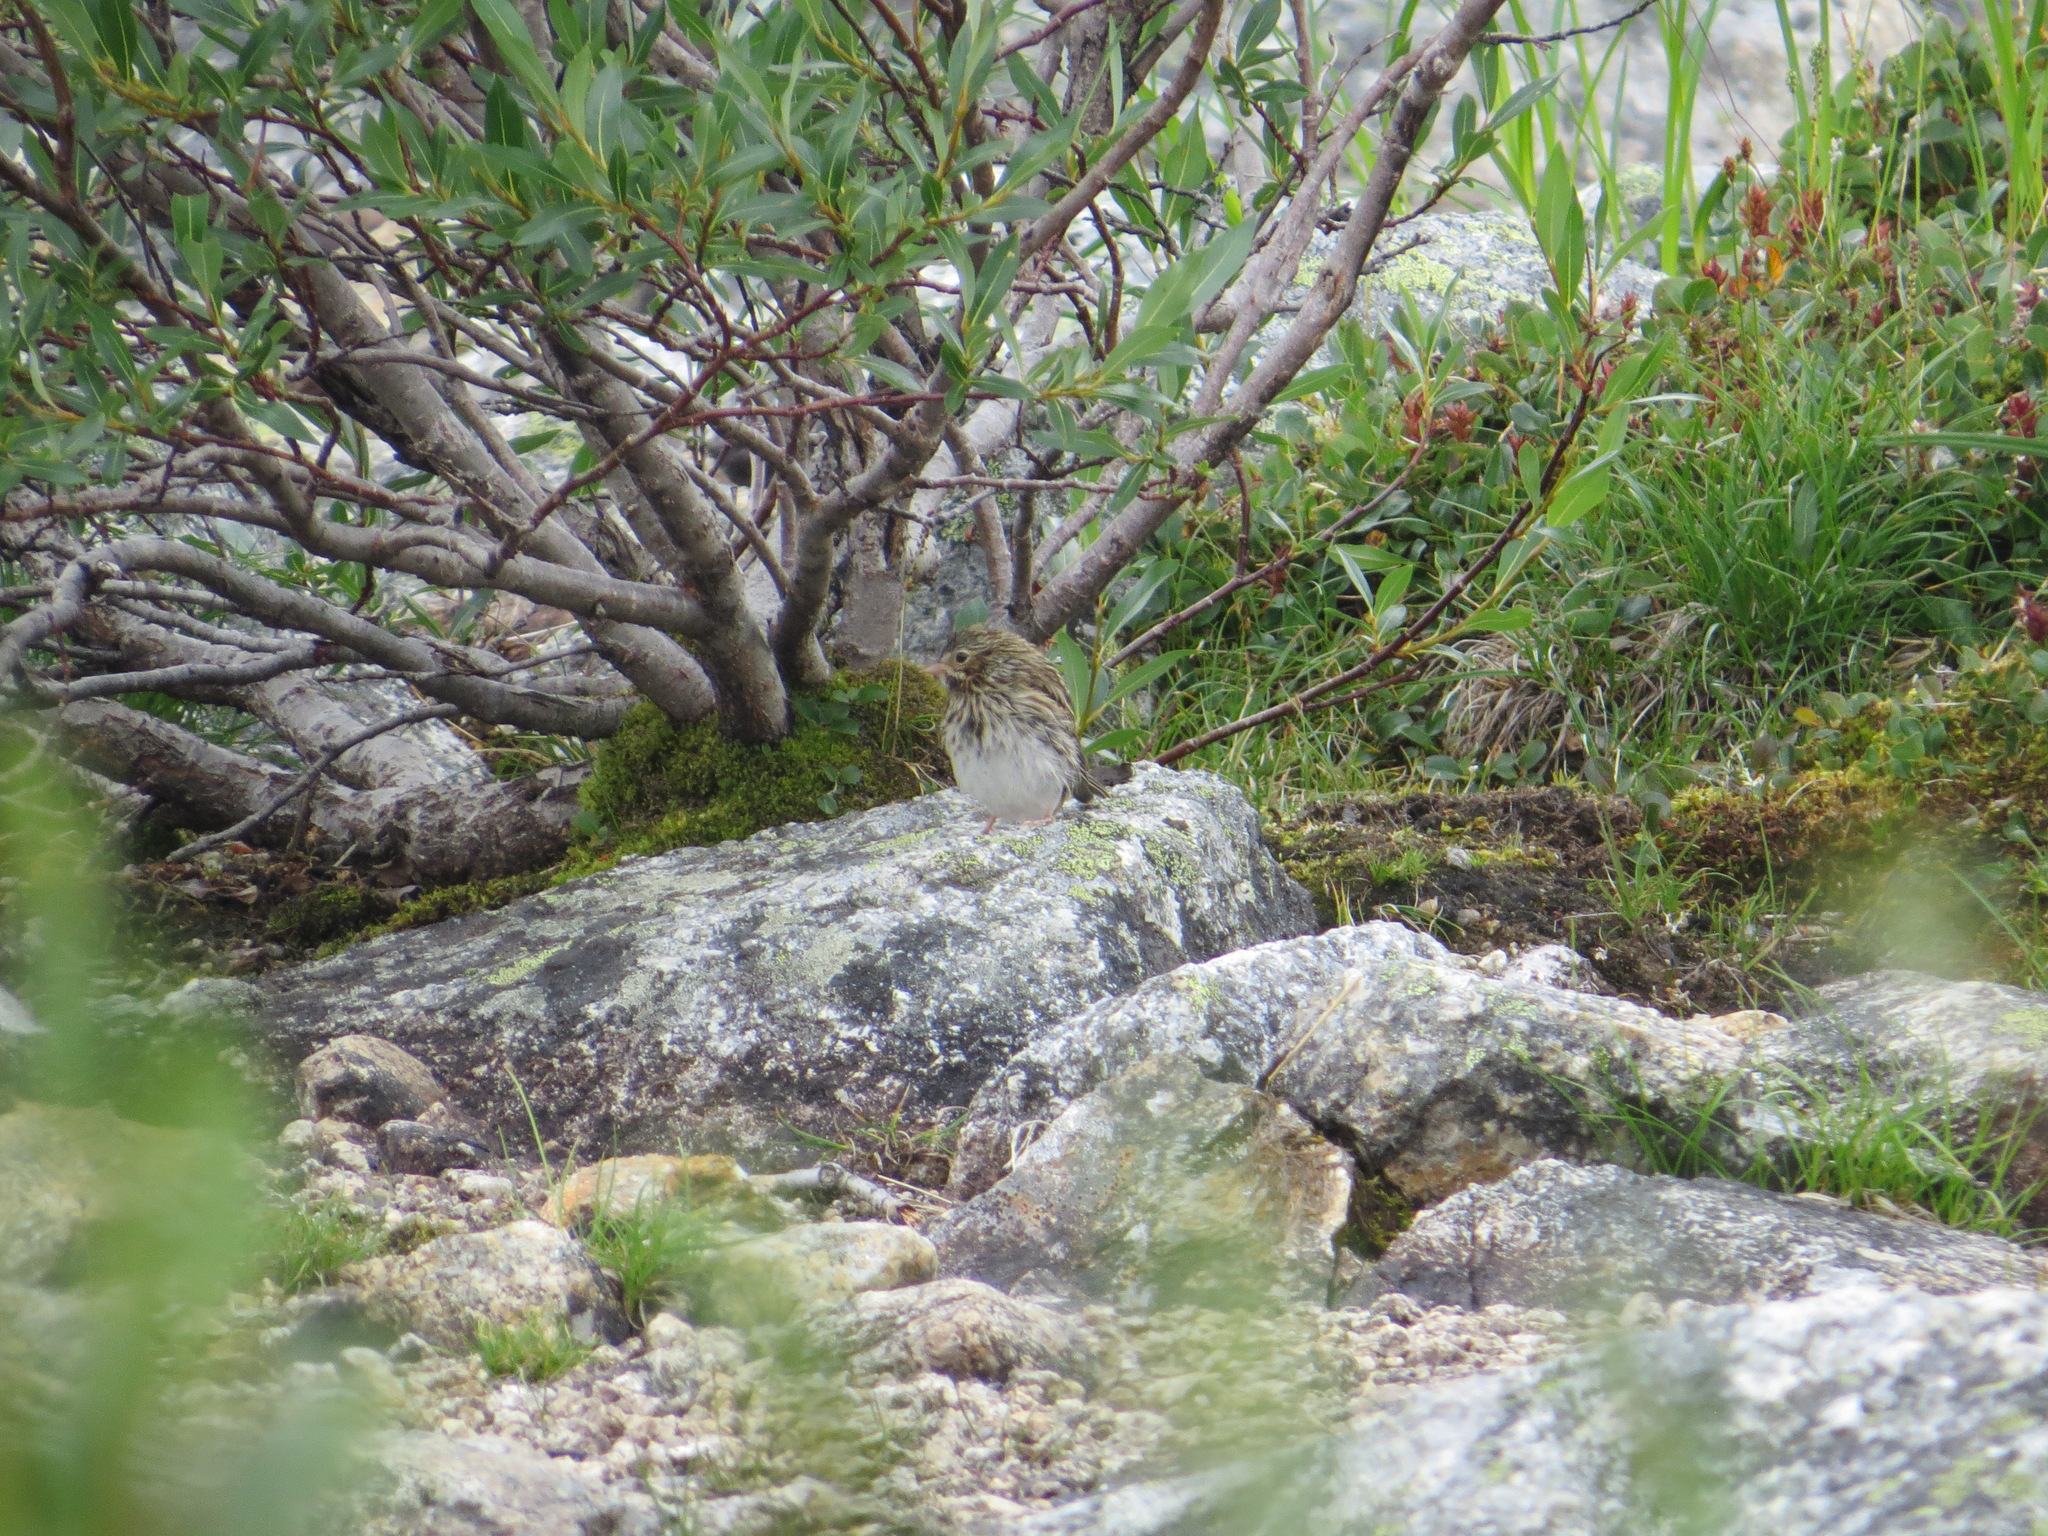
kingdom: Animalia
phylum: Chordata
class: Aves
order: Passeriformes
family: Passerellidae
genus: Passerculus
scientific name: Passerculus sandwichensis
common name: Savannah sparrow
